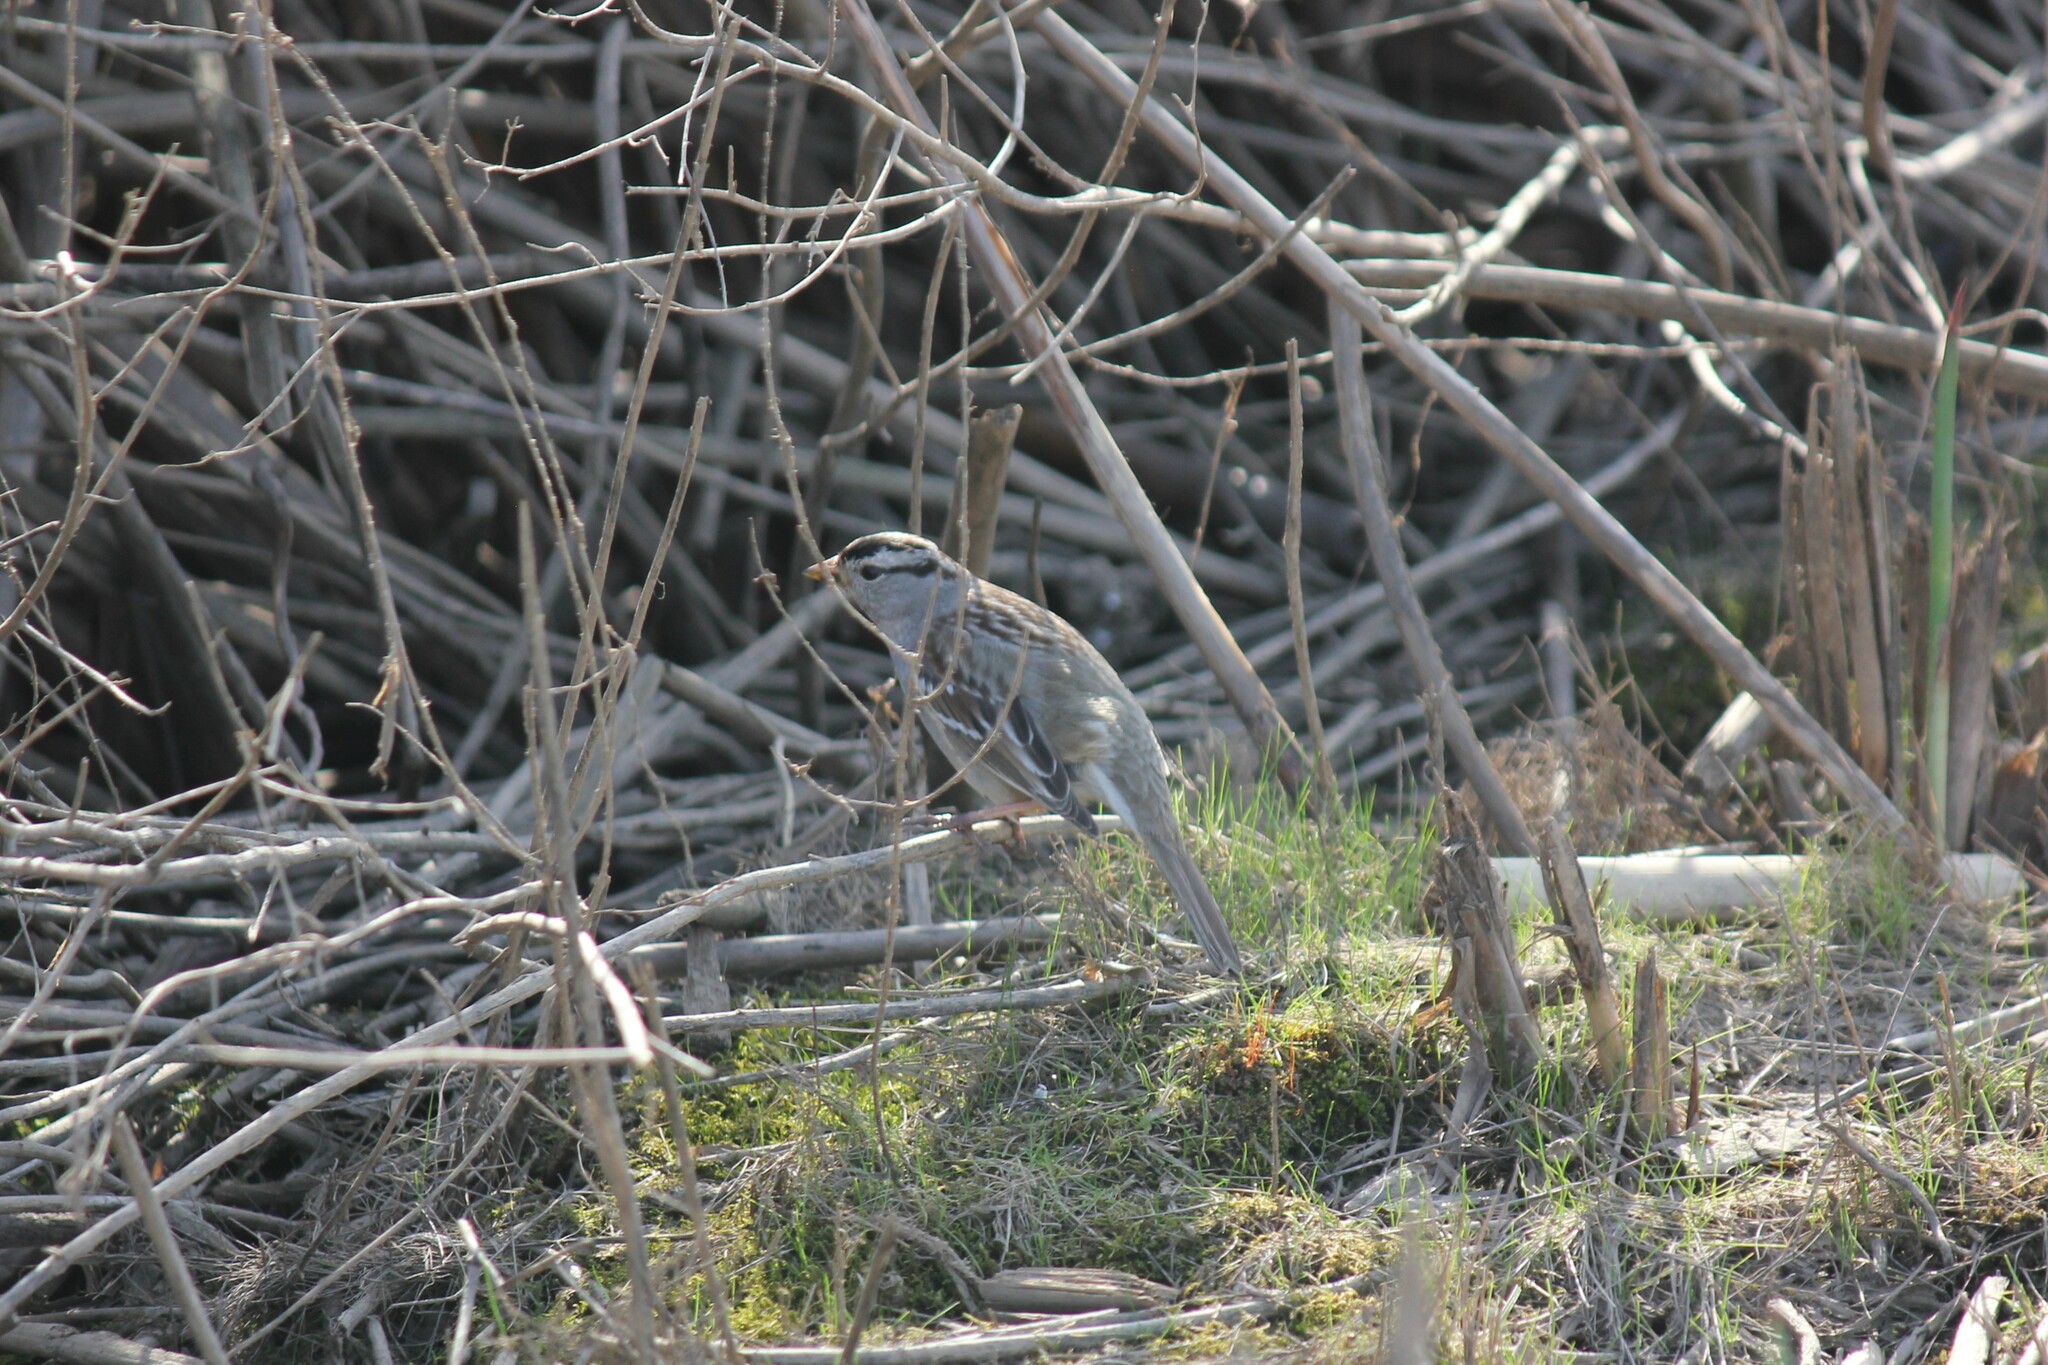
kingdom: Animalia
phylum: Chordata
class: Aves
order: Passeriformes
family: Passerellidae
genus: Zonotrichia
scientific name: Zonotrichia leucophrys
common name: White-crowned sparrow
